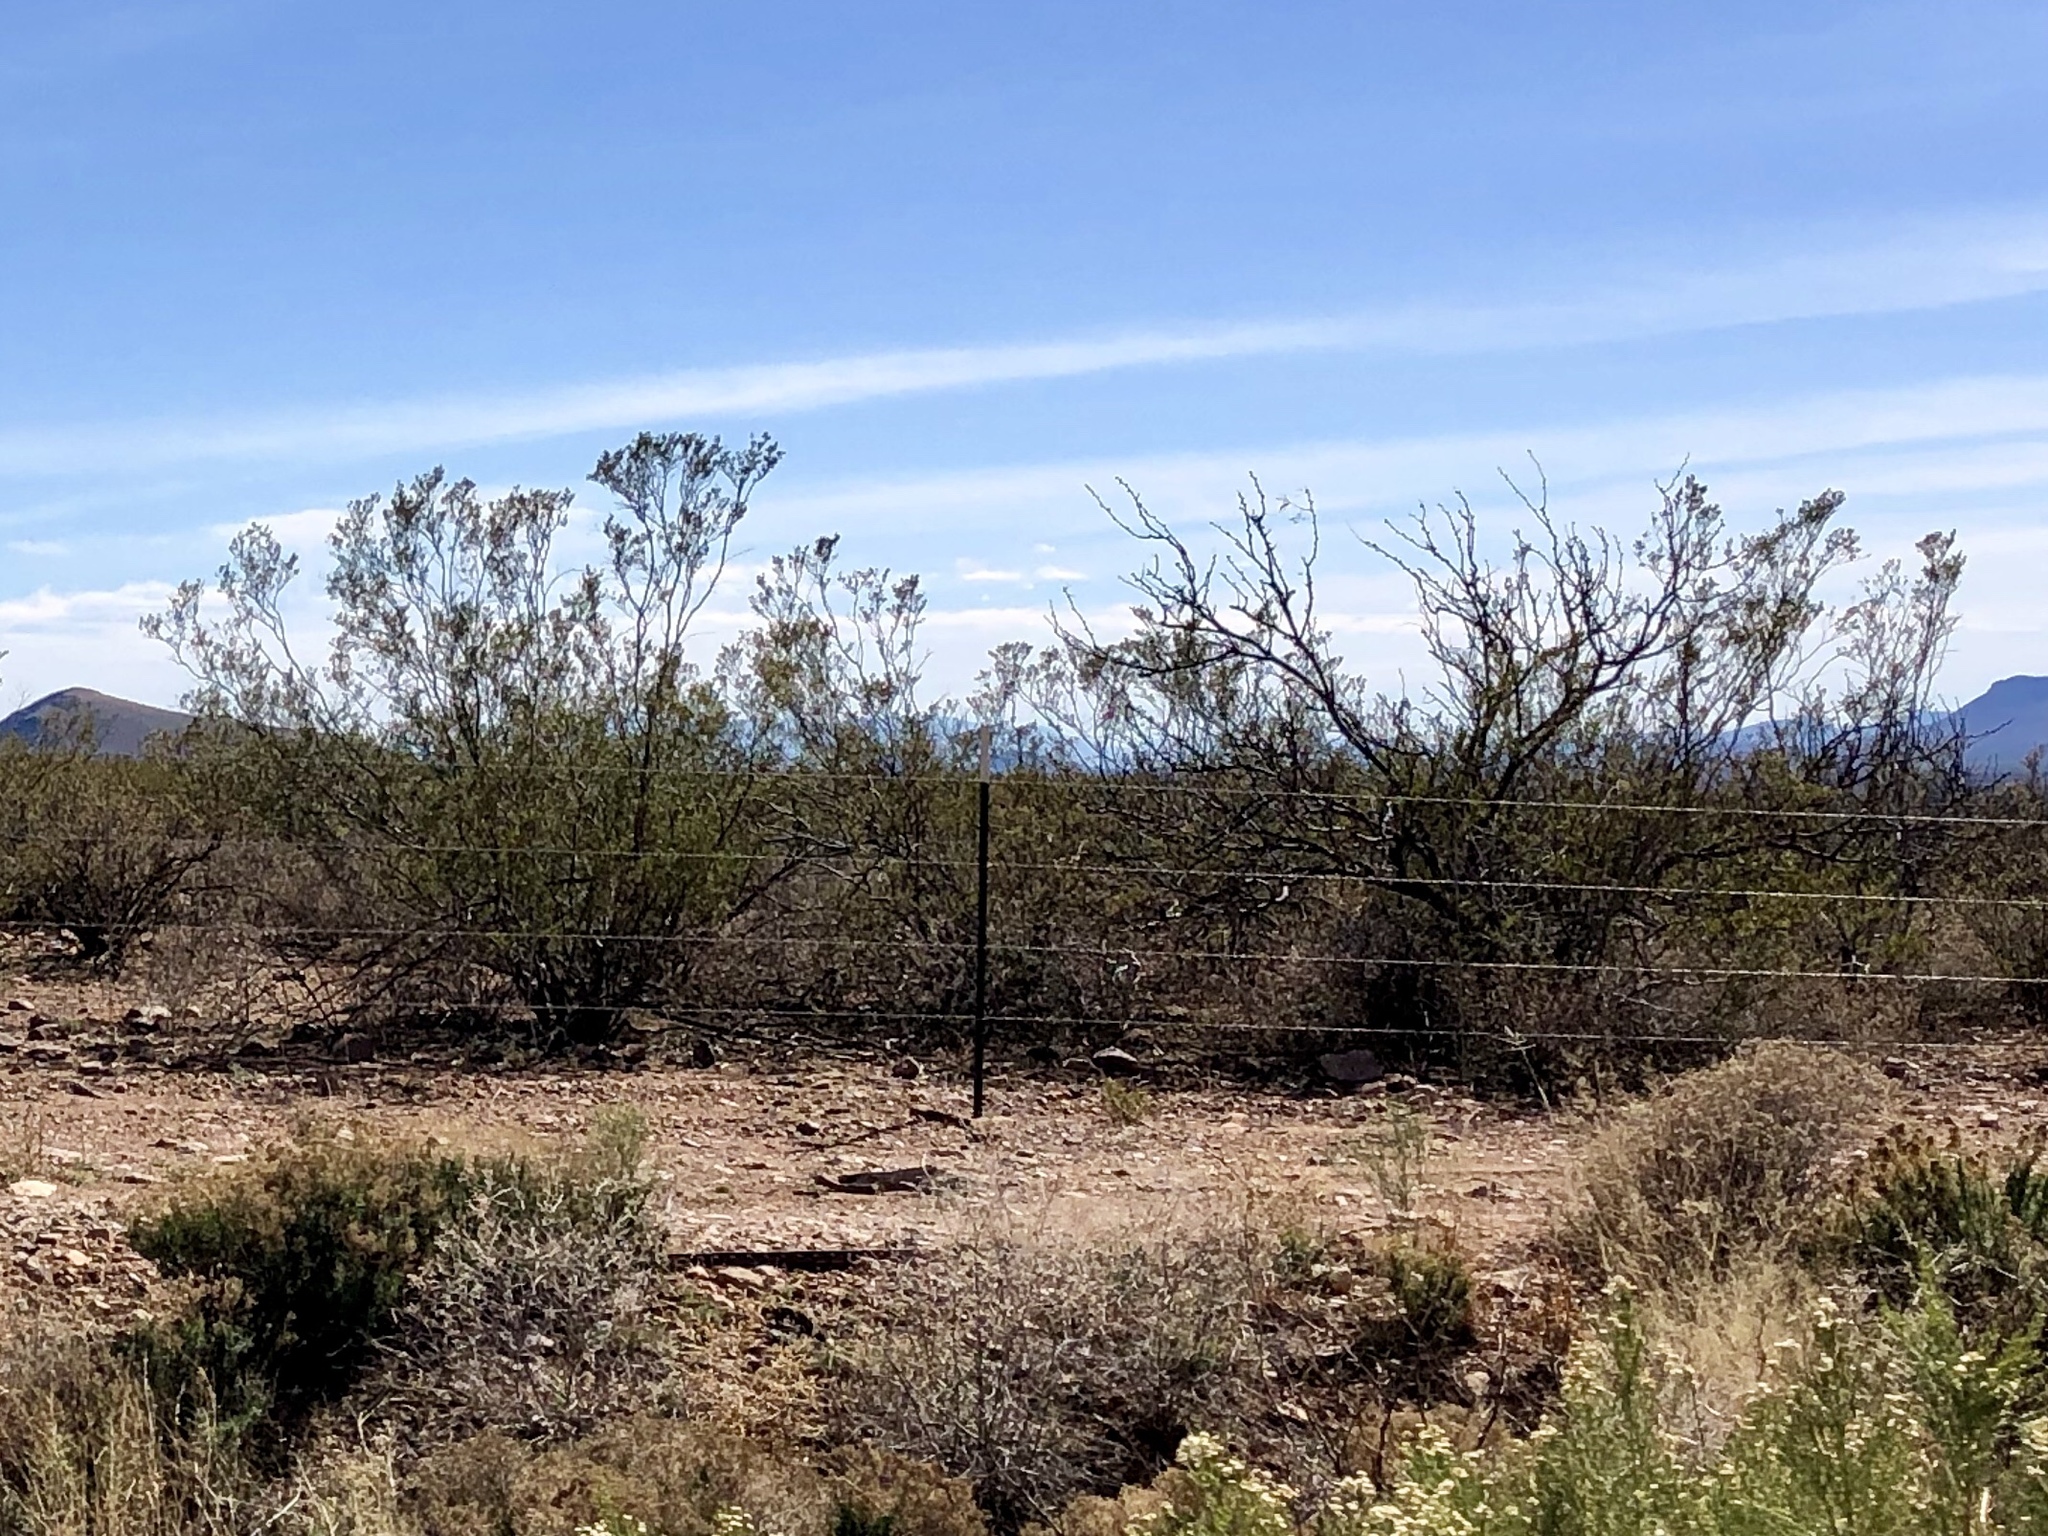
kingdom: Plantae
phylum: Tracheophyta
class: Magnoliopsida
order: Zygophyllales
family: Zygophyllaceae
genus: Larrea
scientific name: Larrea tridentata
